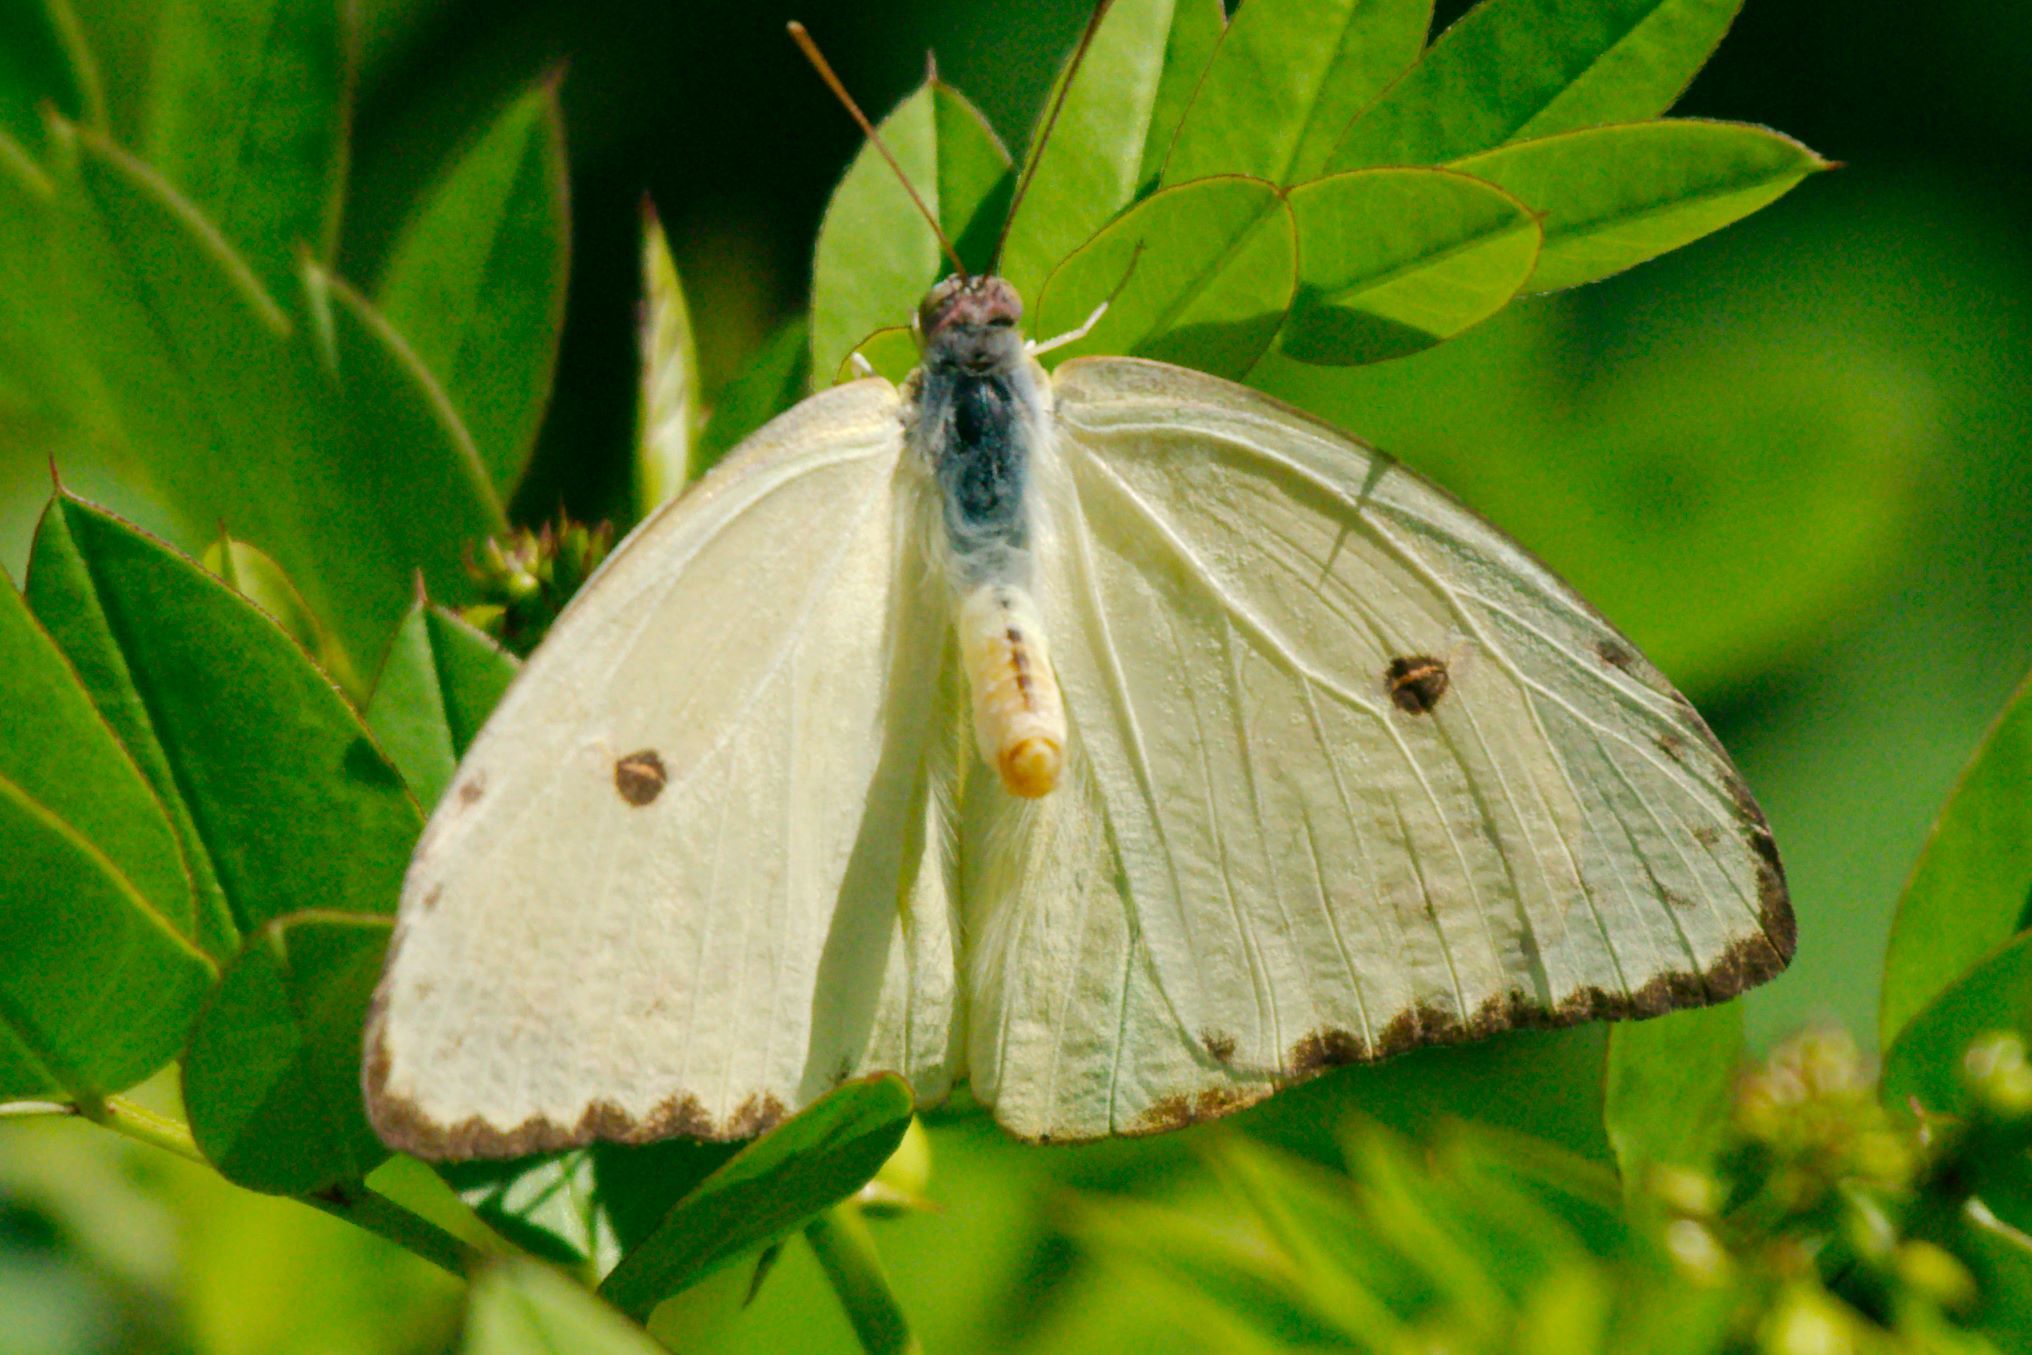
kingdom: Animalia
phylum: Arthropoda
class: Insecta
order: Lepidoptera
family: Pieridae
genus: Phoebis
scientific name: Phoebis sennae
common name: Cloudless sulphur
